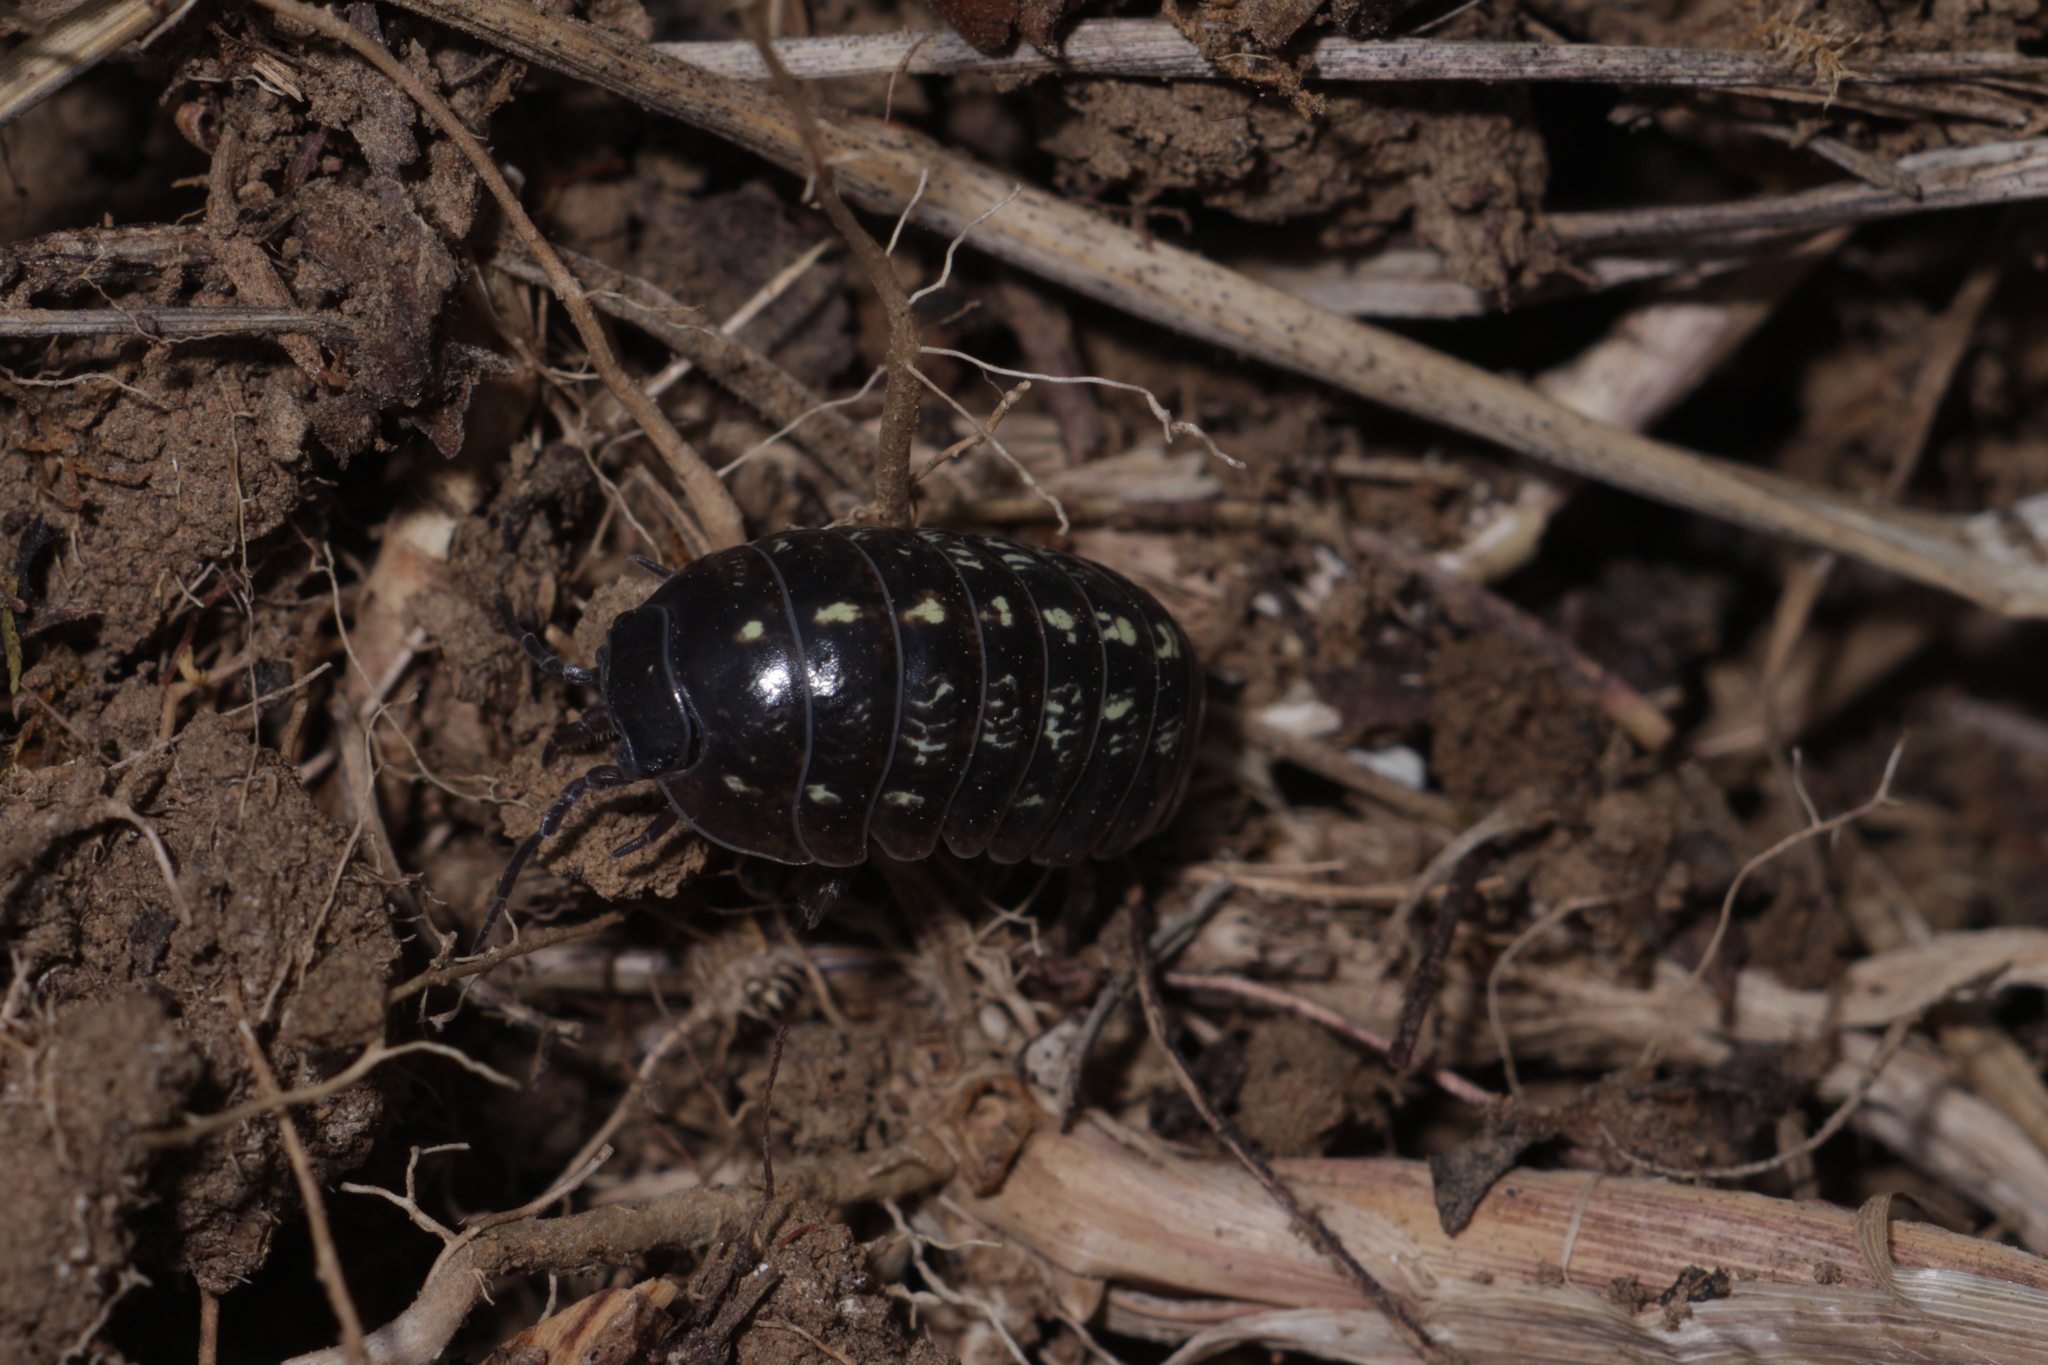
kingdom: Animalia
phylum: Arthropoda
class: Malacostraca
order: Isopoda
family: Armadillidiidae
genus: Armadillidium
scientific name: Armadillidium vulgare
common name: Common pill woodlouse
